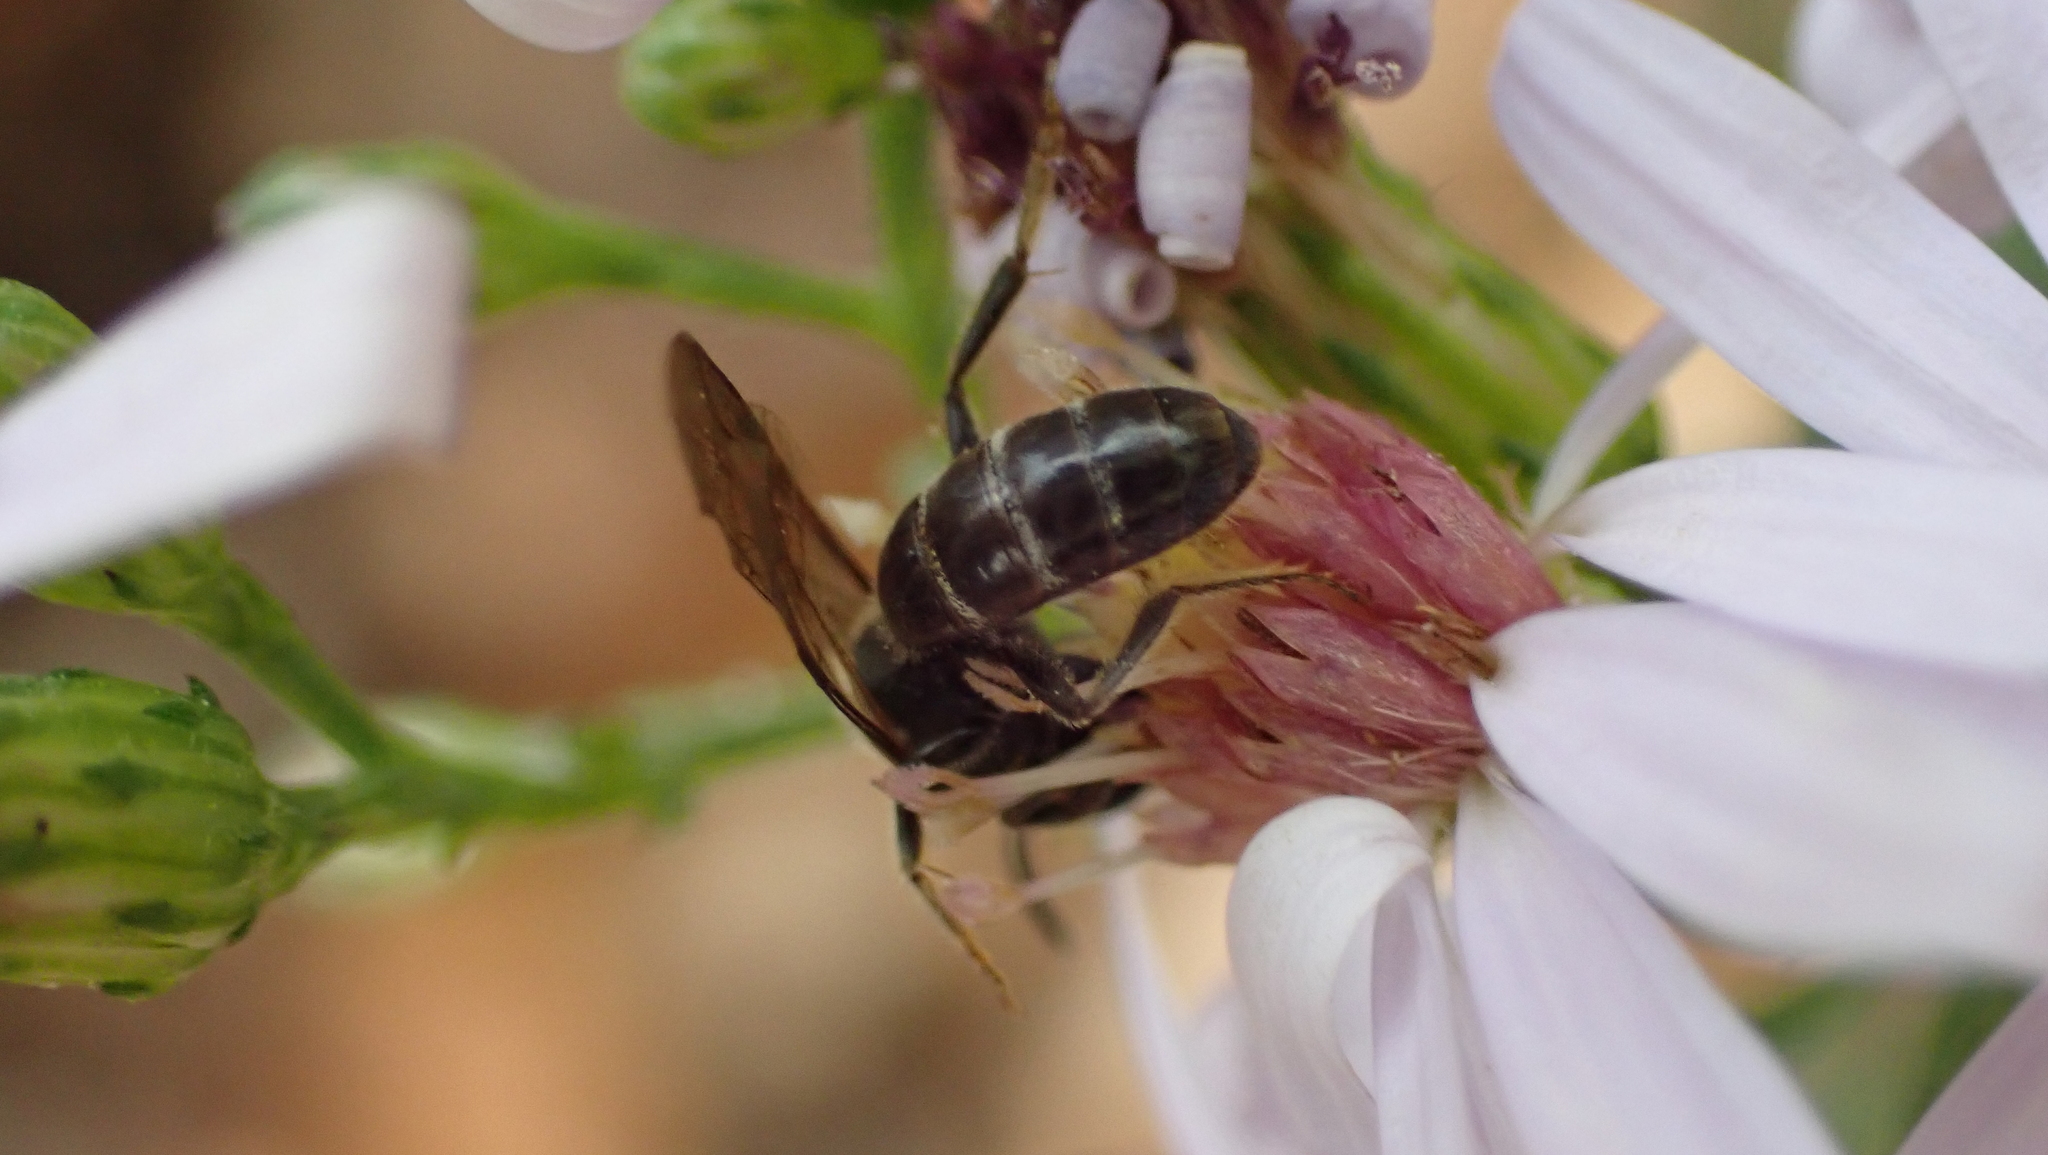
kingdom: Animalia
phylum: Arthropoda
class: Insecta
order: Hymenoptera
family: Halictidae
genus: Lasioglossum
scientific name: Lasioglossum fuscipenne
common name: Brown-winged sweat bee
